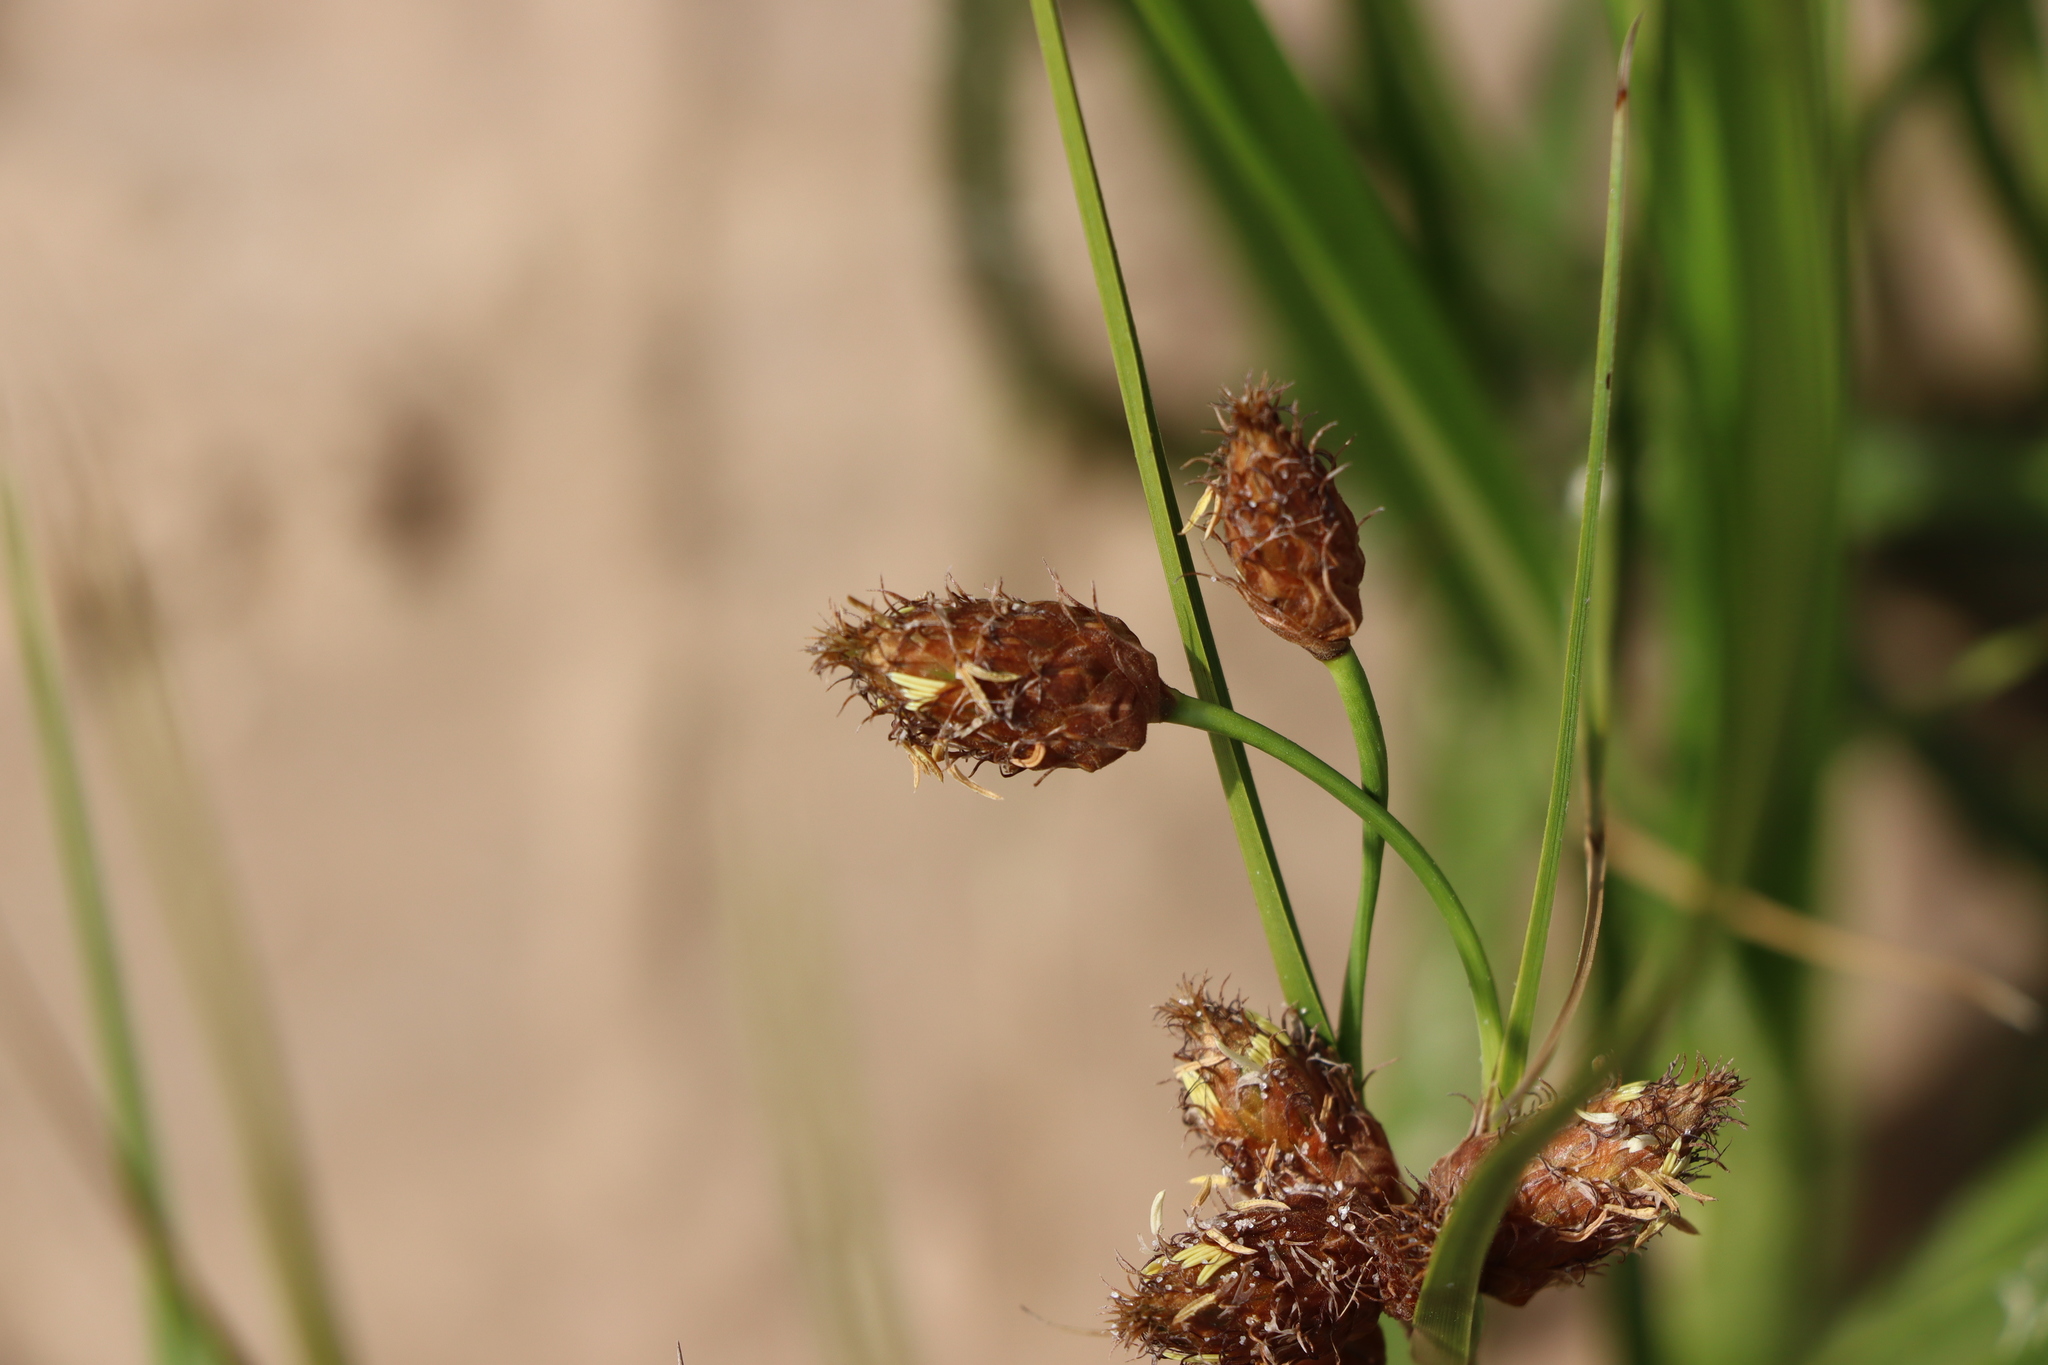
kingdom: Plantae
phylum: Tracheophyta
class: Liliopsida
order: Poales
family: Cyperaceae
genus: Bolboschoenus
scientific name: Bolboschoenus robustus
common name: Seacoast bulrush
